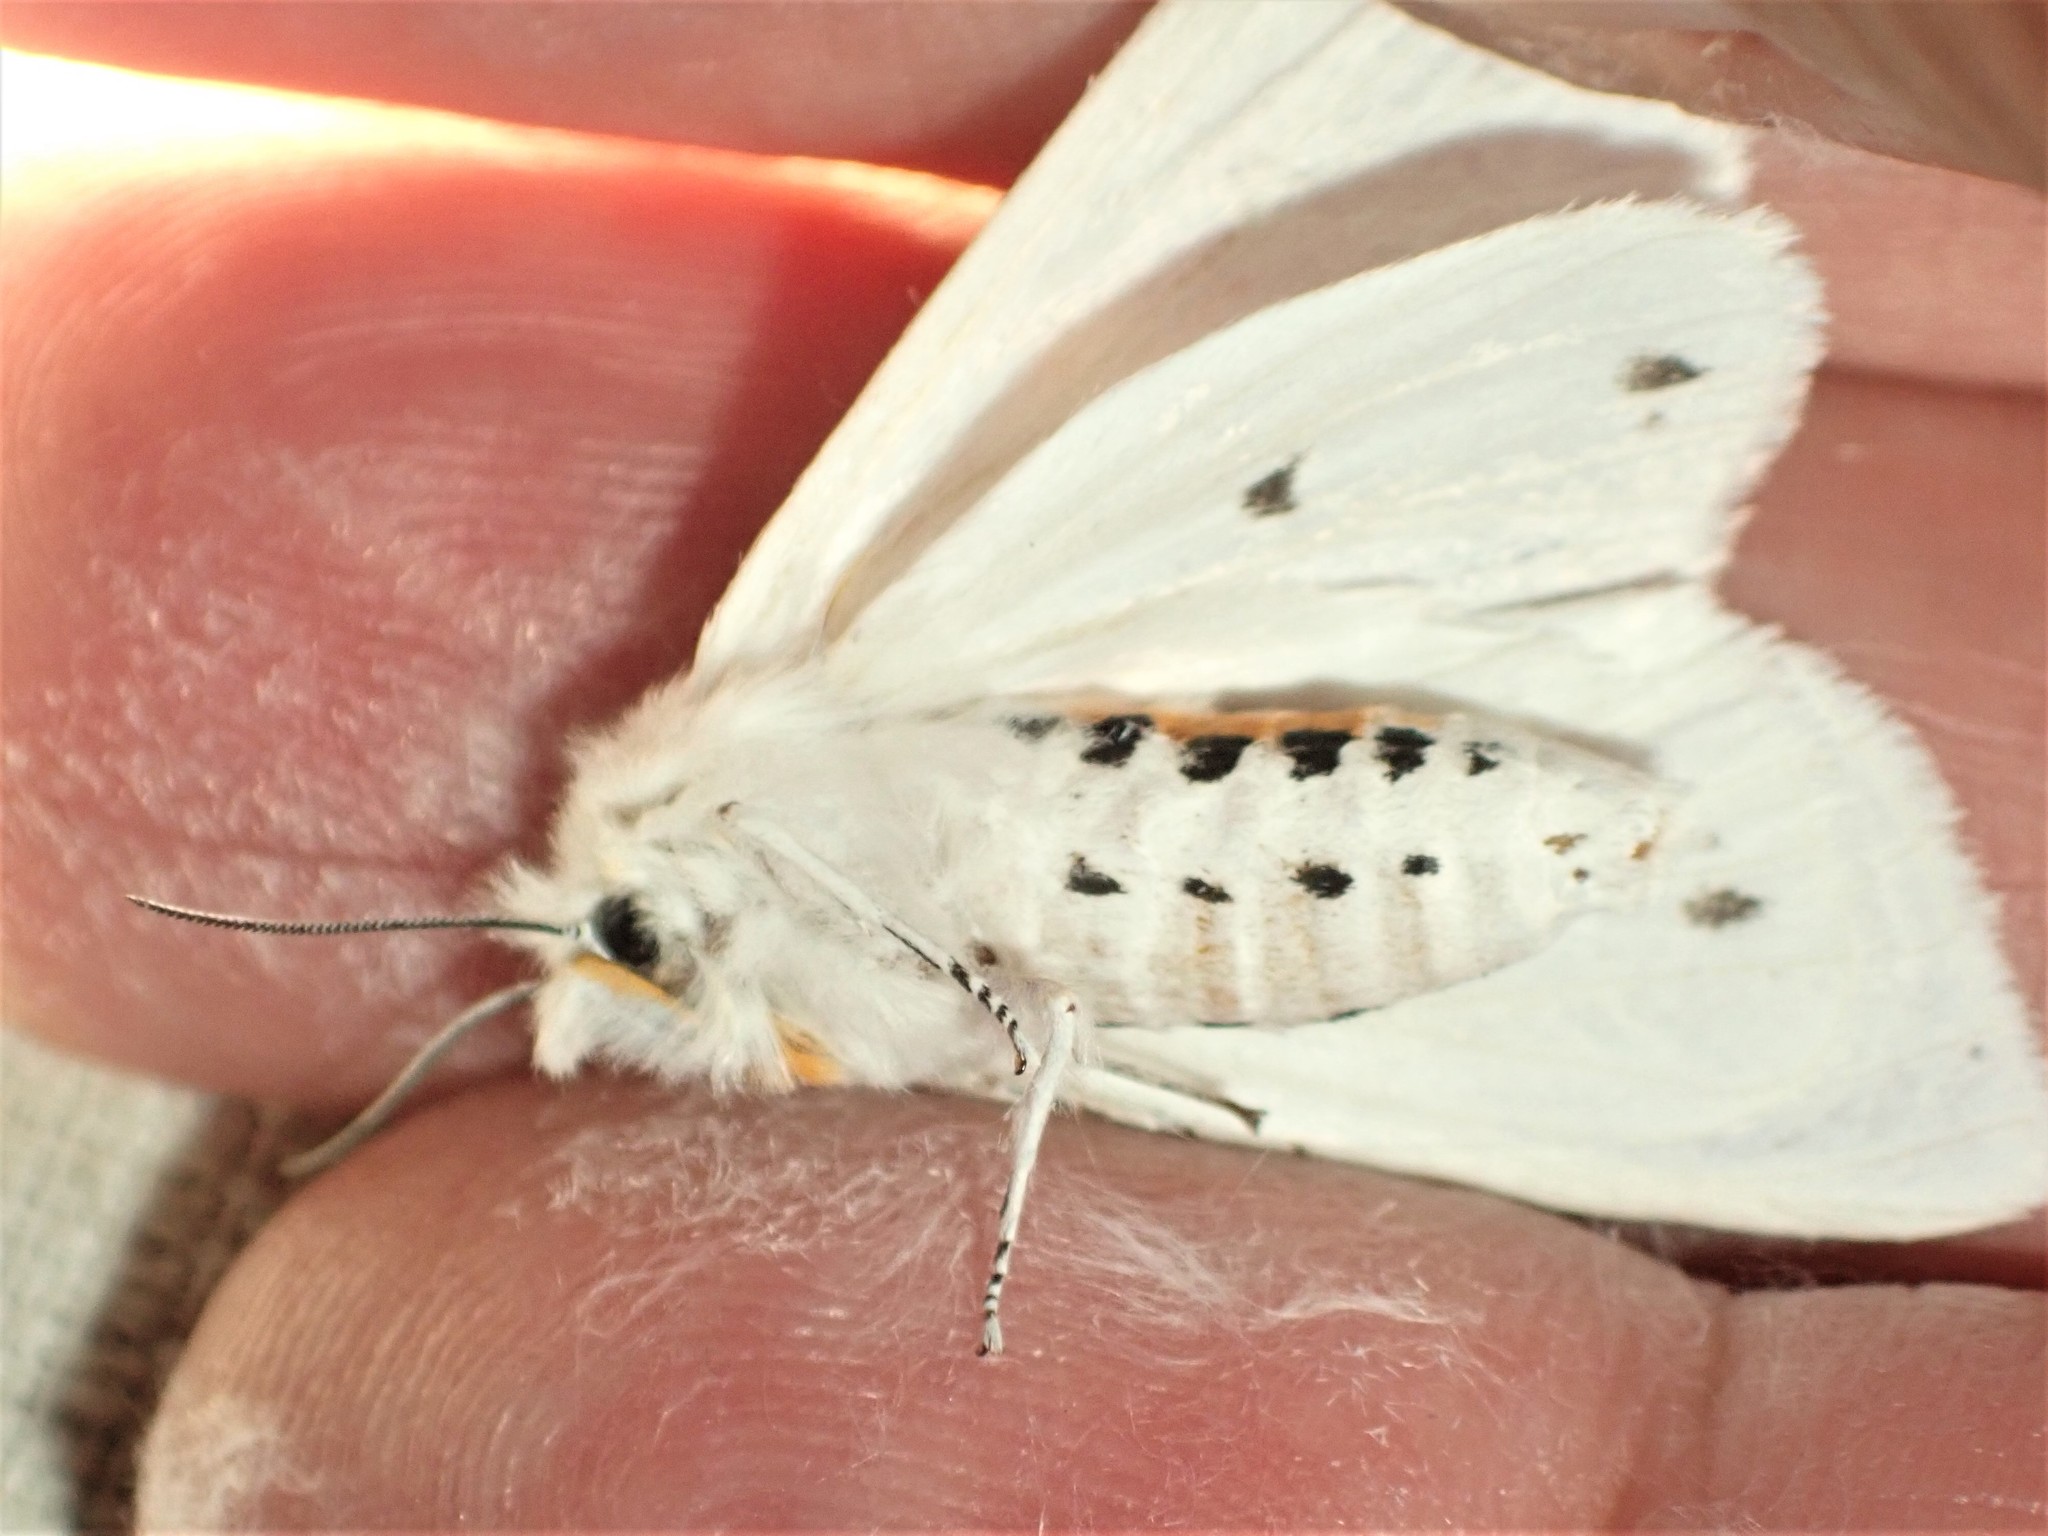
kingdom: Animalia
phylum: Arthropoda
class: Insecta
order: Lepidoptera
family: Erebidae
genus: Spilosoma
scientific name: Spilosoma virginica
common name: Virginia tiger moth
